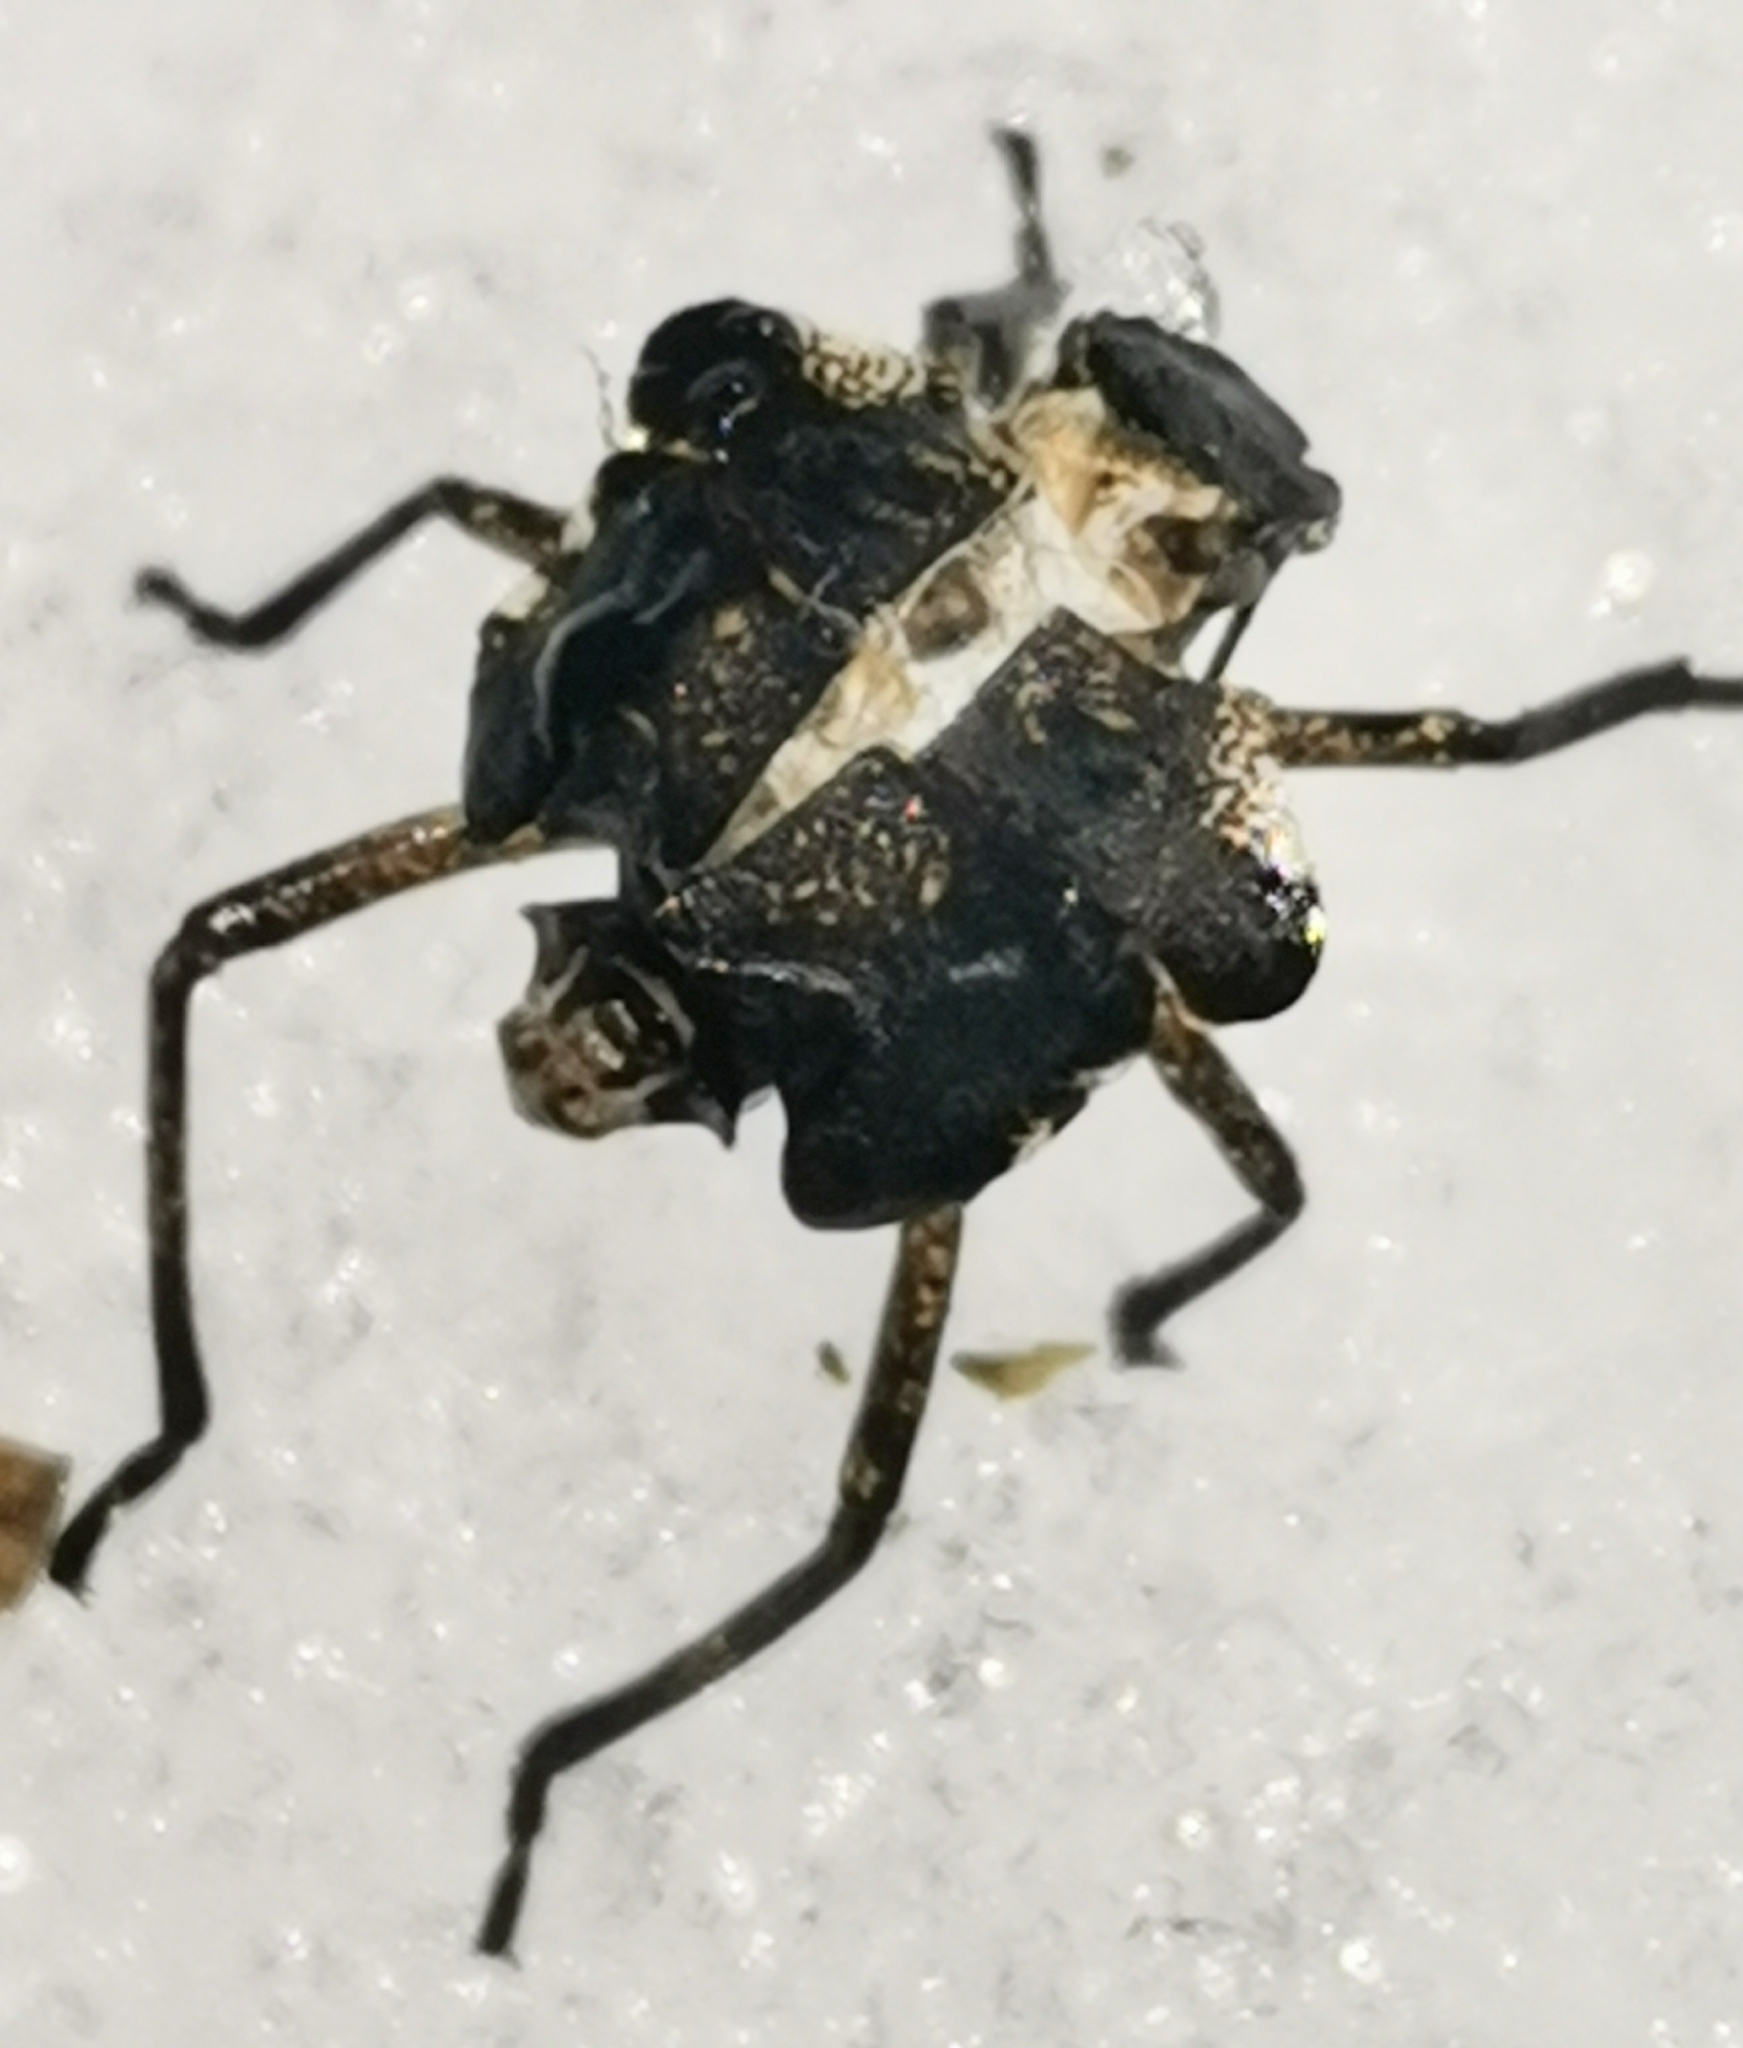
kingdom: Animalia
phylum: Arthropoda
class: Insecta
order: Hemiptera
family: Pentatomidae
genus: Pentatoma
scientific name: Pentatoma rufipes
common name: Forest bug
